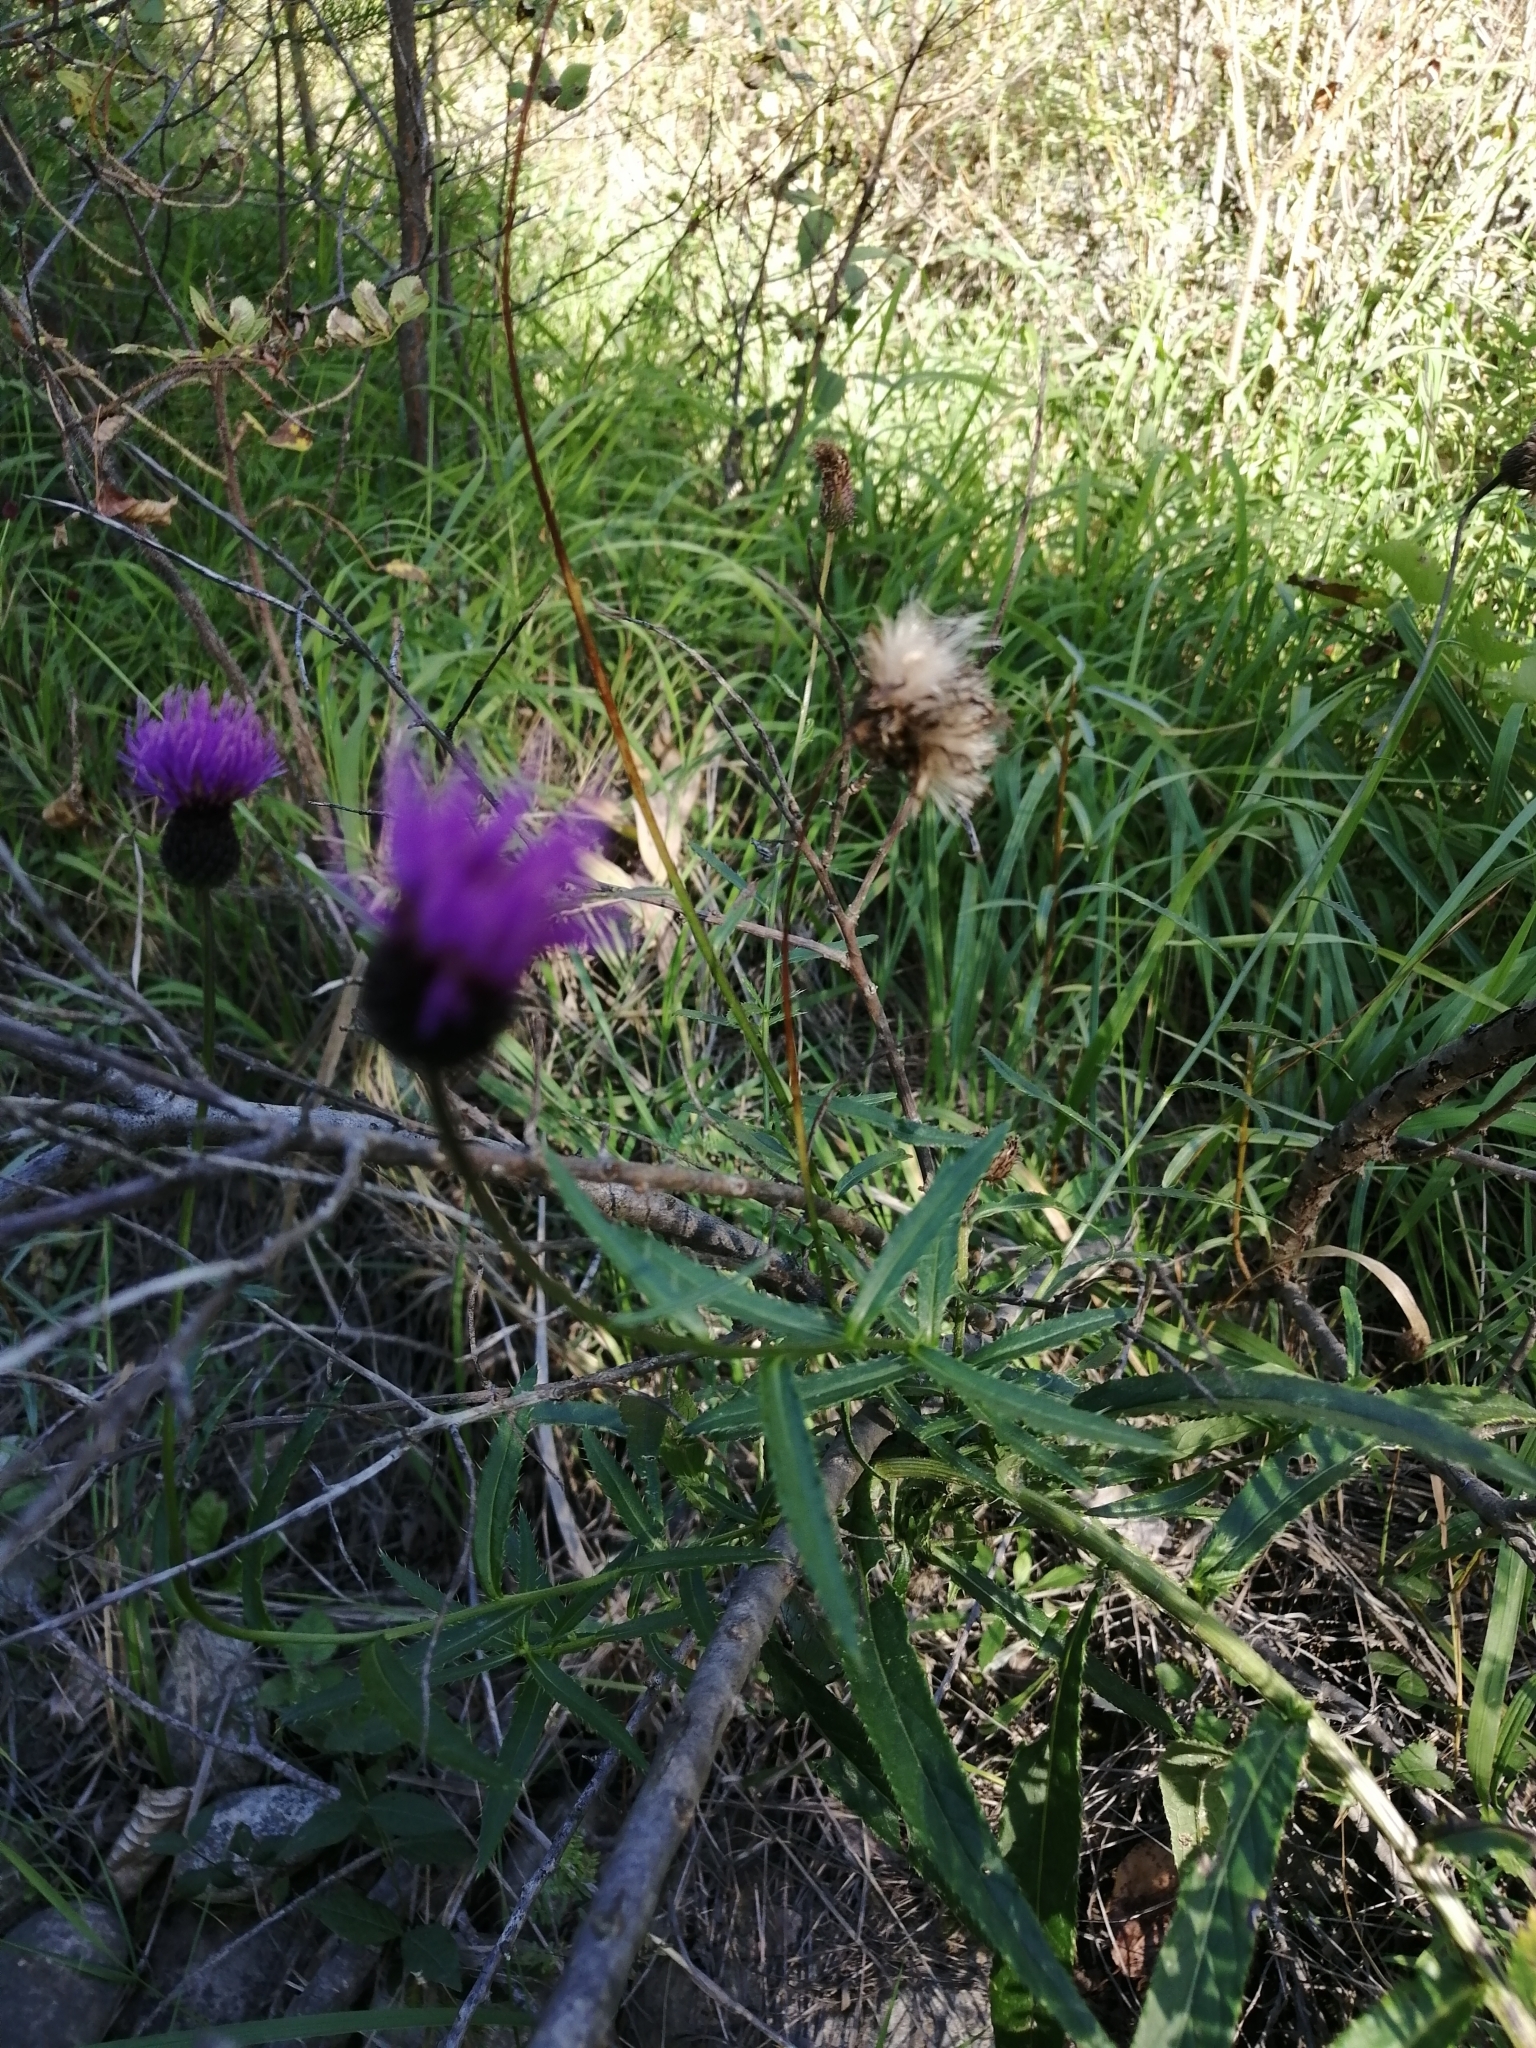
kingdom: Plantae
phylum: Tracheophyta
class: Magnoliopsida
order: Asterales
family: Asteraceae
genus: Cirsium
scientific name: Cirsium serratuloides
